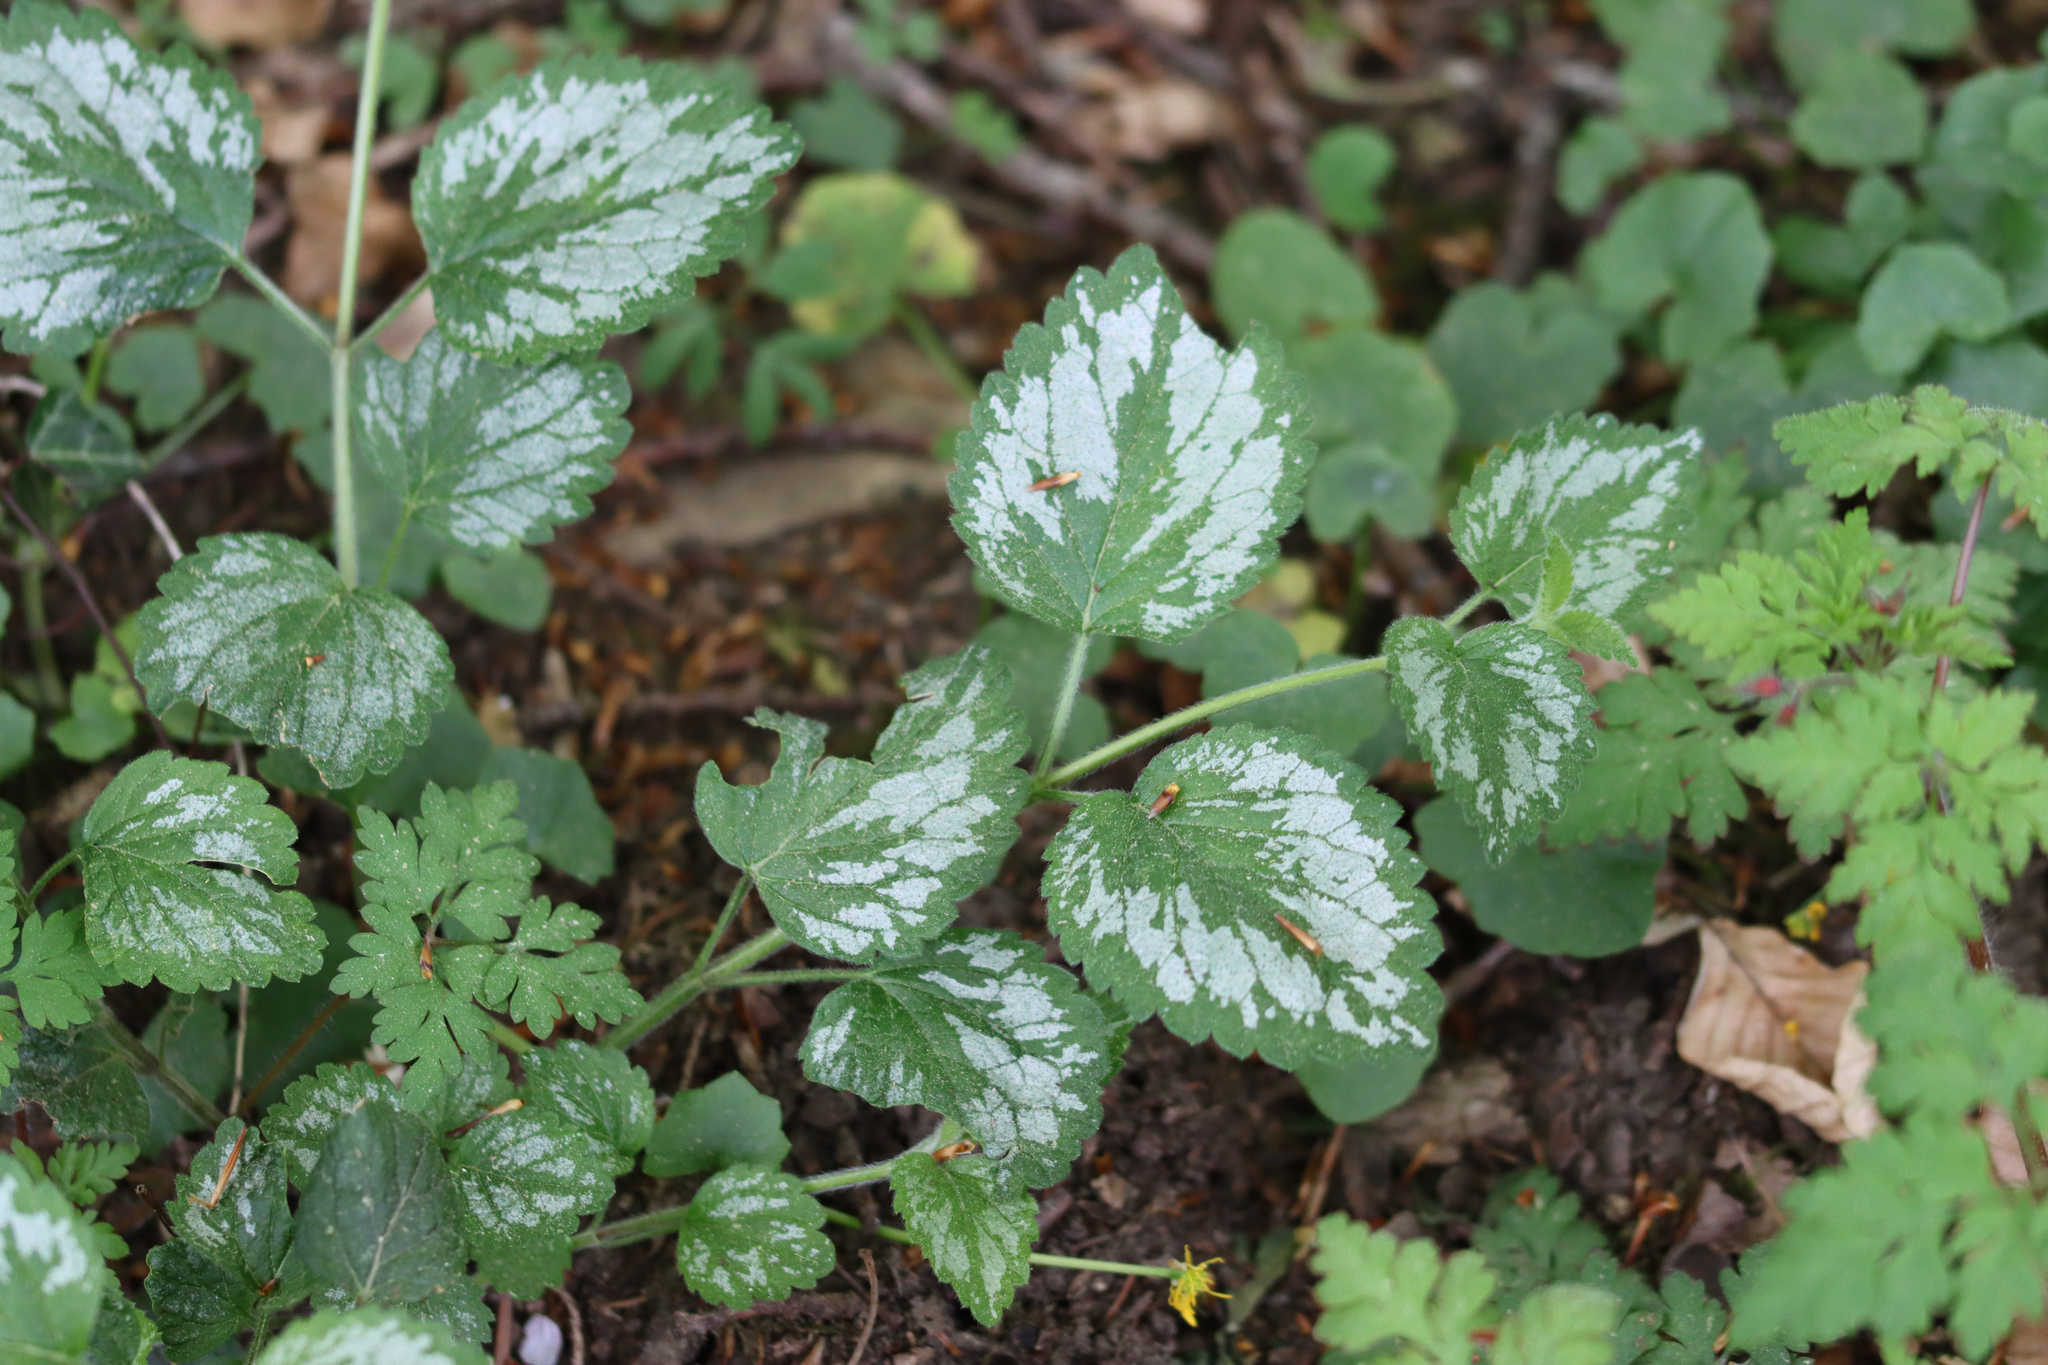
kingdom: Plantae
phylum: Tracheophyta
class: Magnoliopsida
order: Lamiales
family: Lamiaceae
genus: Lamium
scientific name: Lamium galeobdolon
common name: Yellow archangel
